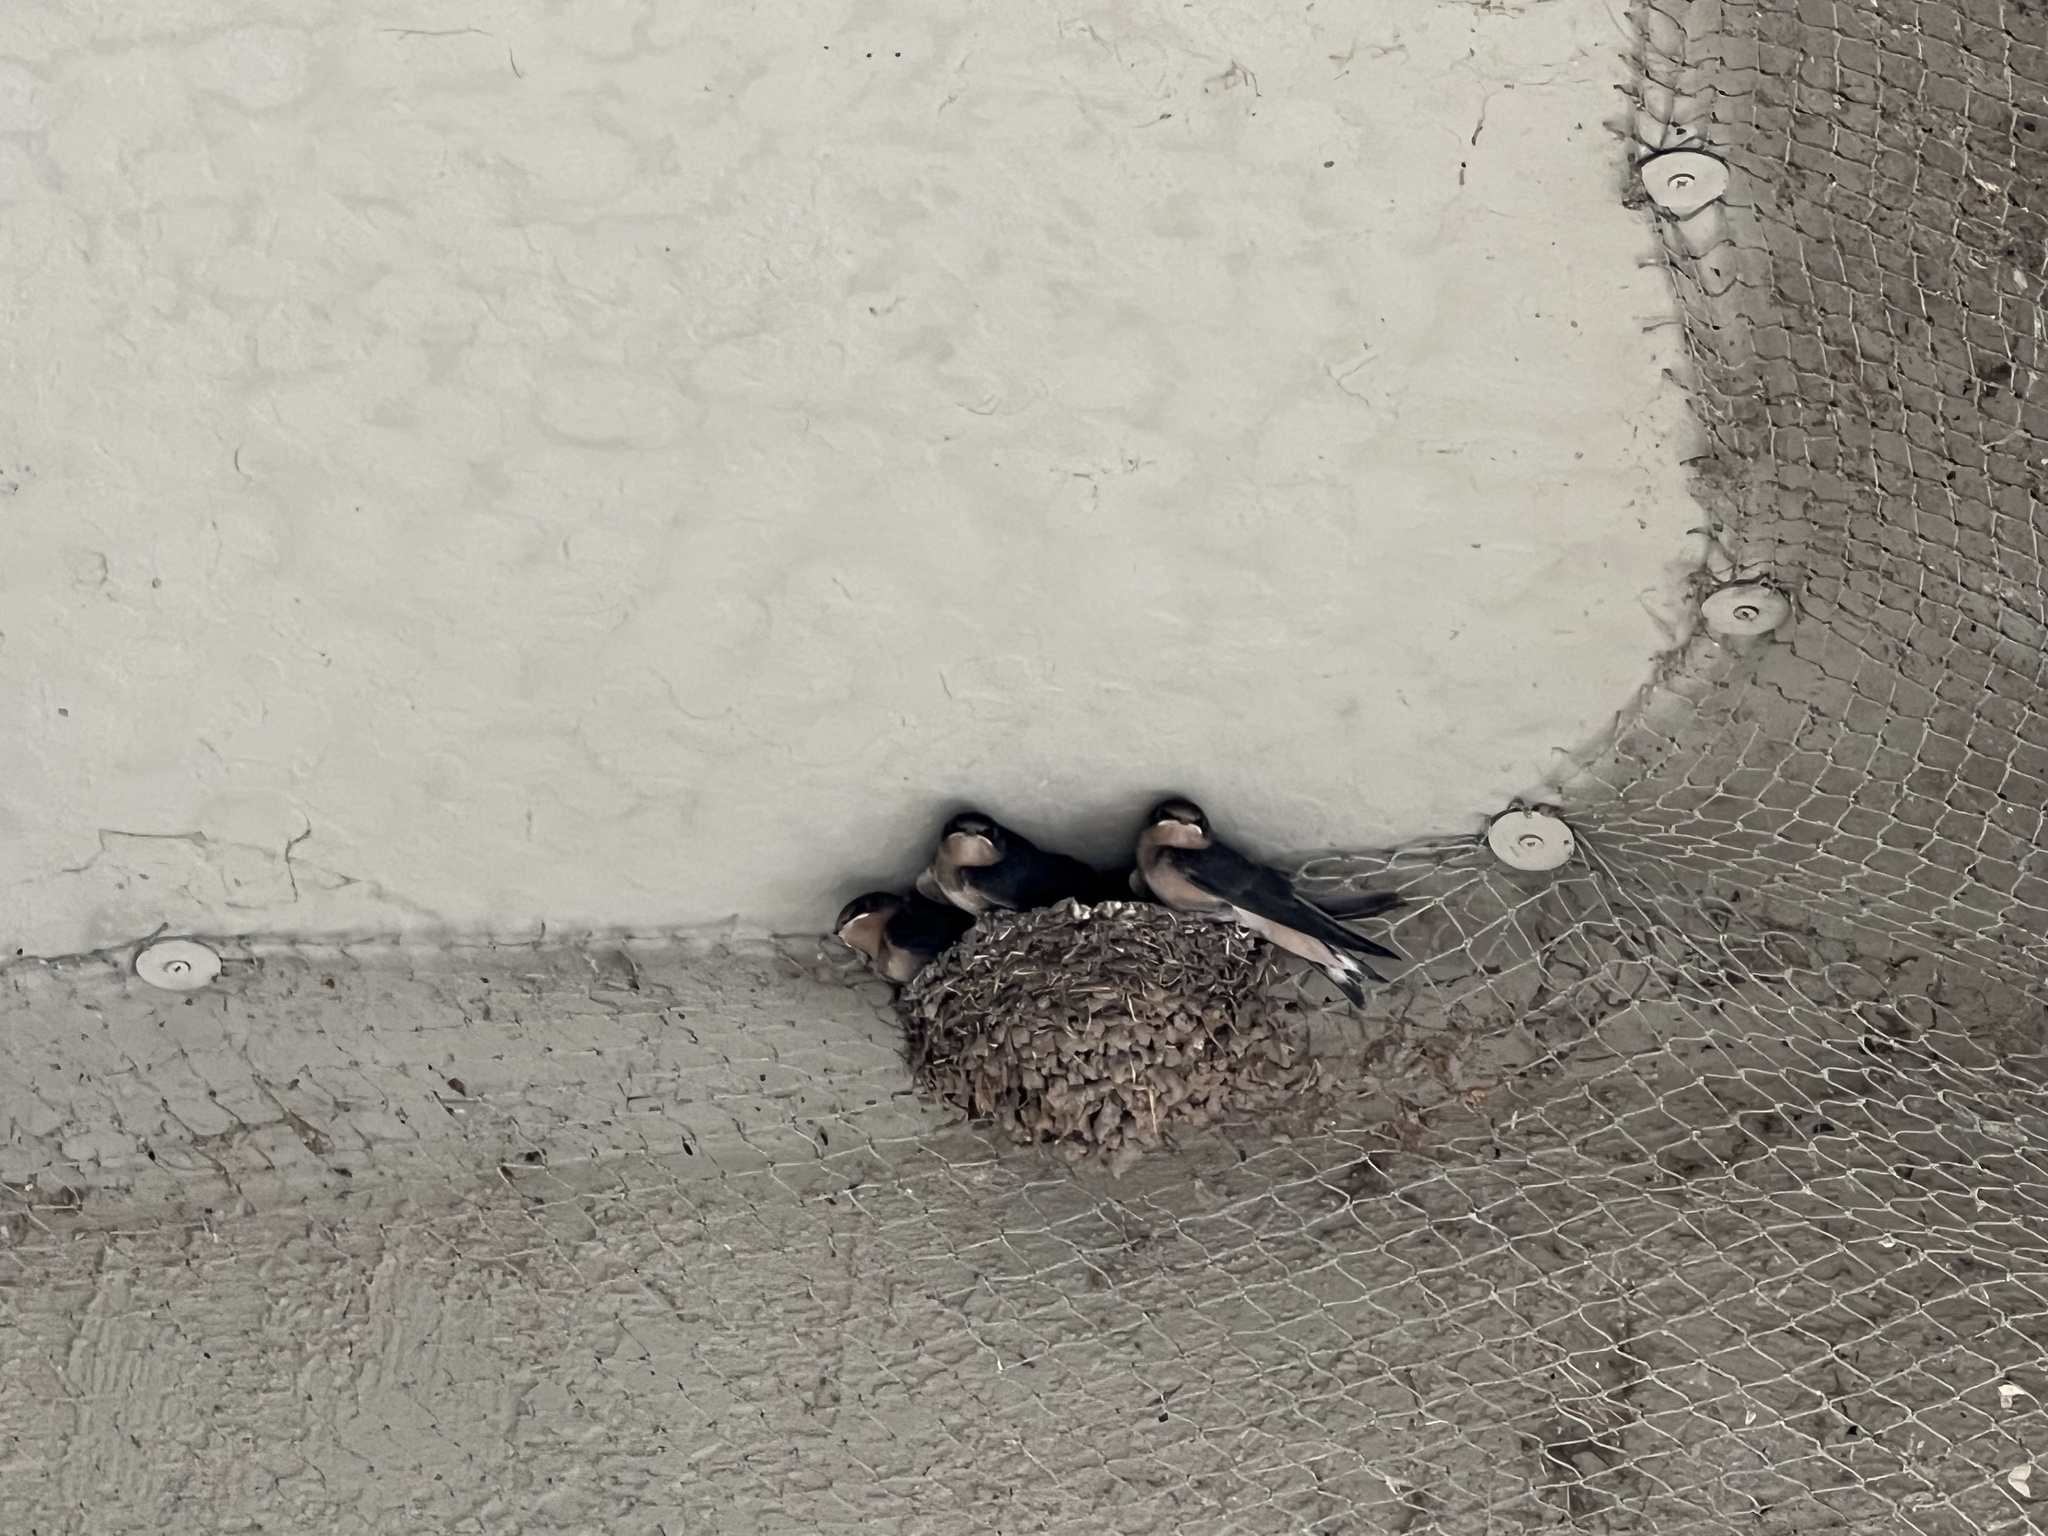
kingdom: Animalia
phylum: Chordata
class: Aves
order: Passeriformes
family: Hirundinidae
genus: Hirundo
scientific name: Hirundo rustica
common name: Barn swallow
